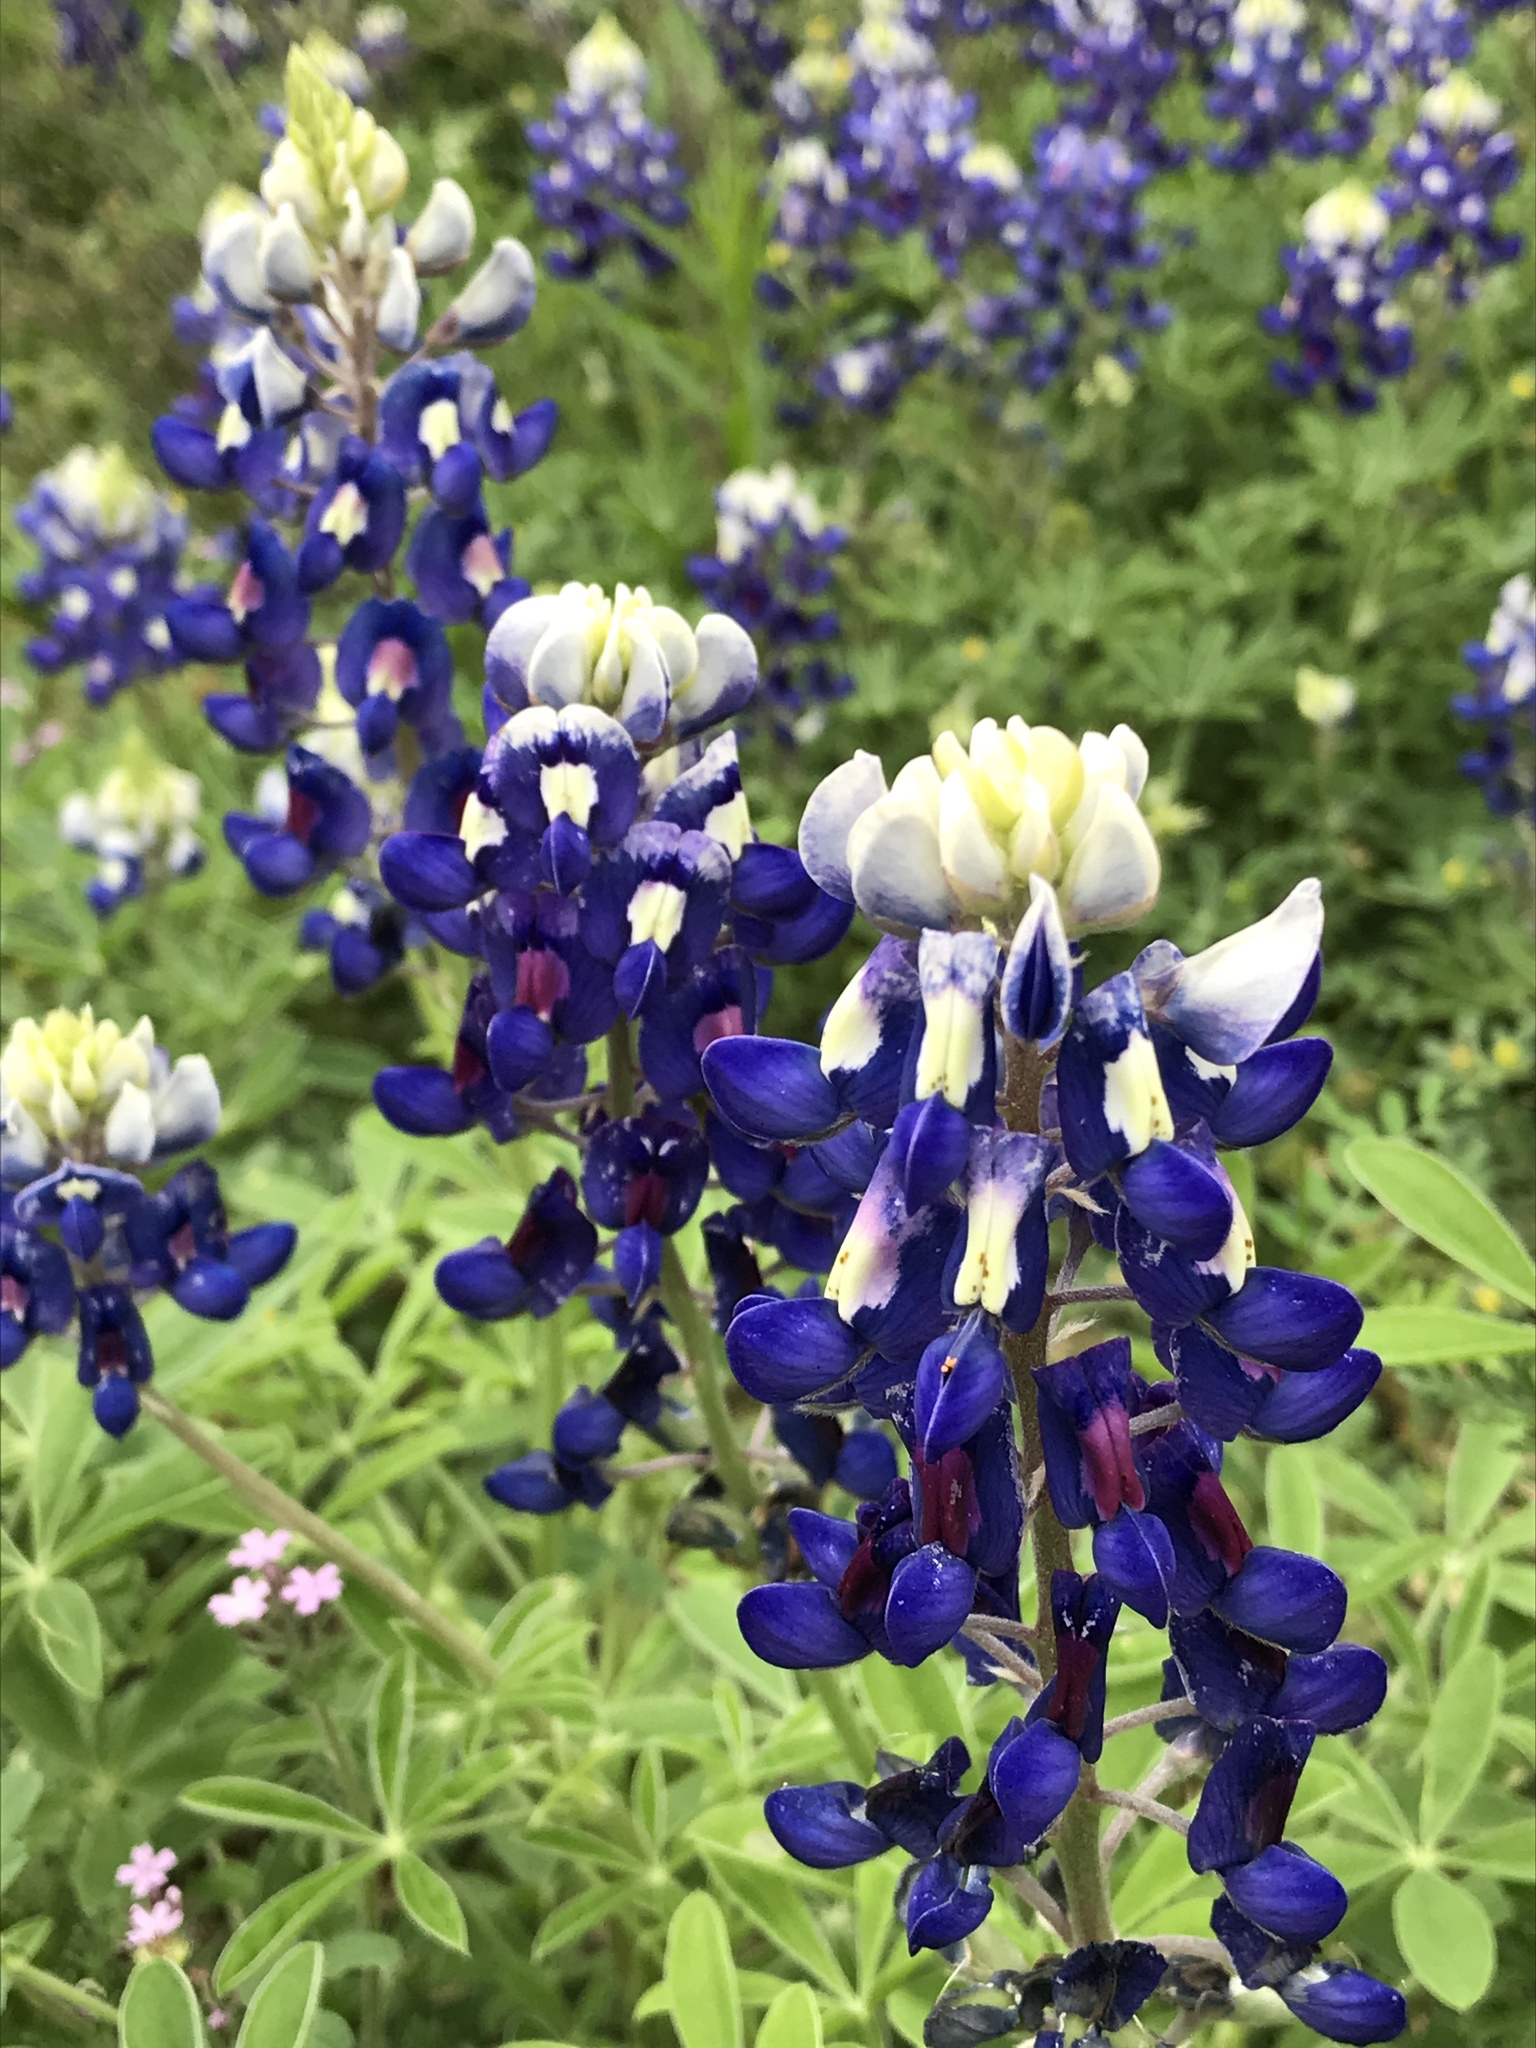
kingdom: Plantae
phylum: Tracheophyta
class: Magnoliopsida
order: Fabales
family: Fabaceae
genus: Lupinus
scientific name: Lupinus texensis
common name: Texas bluebonnet
